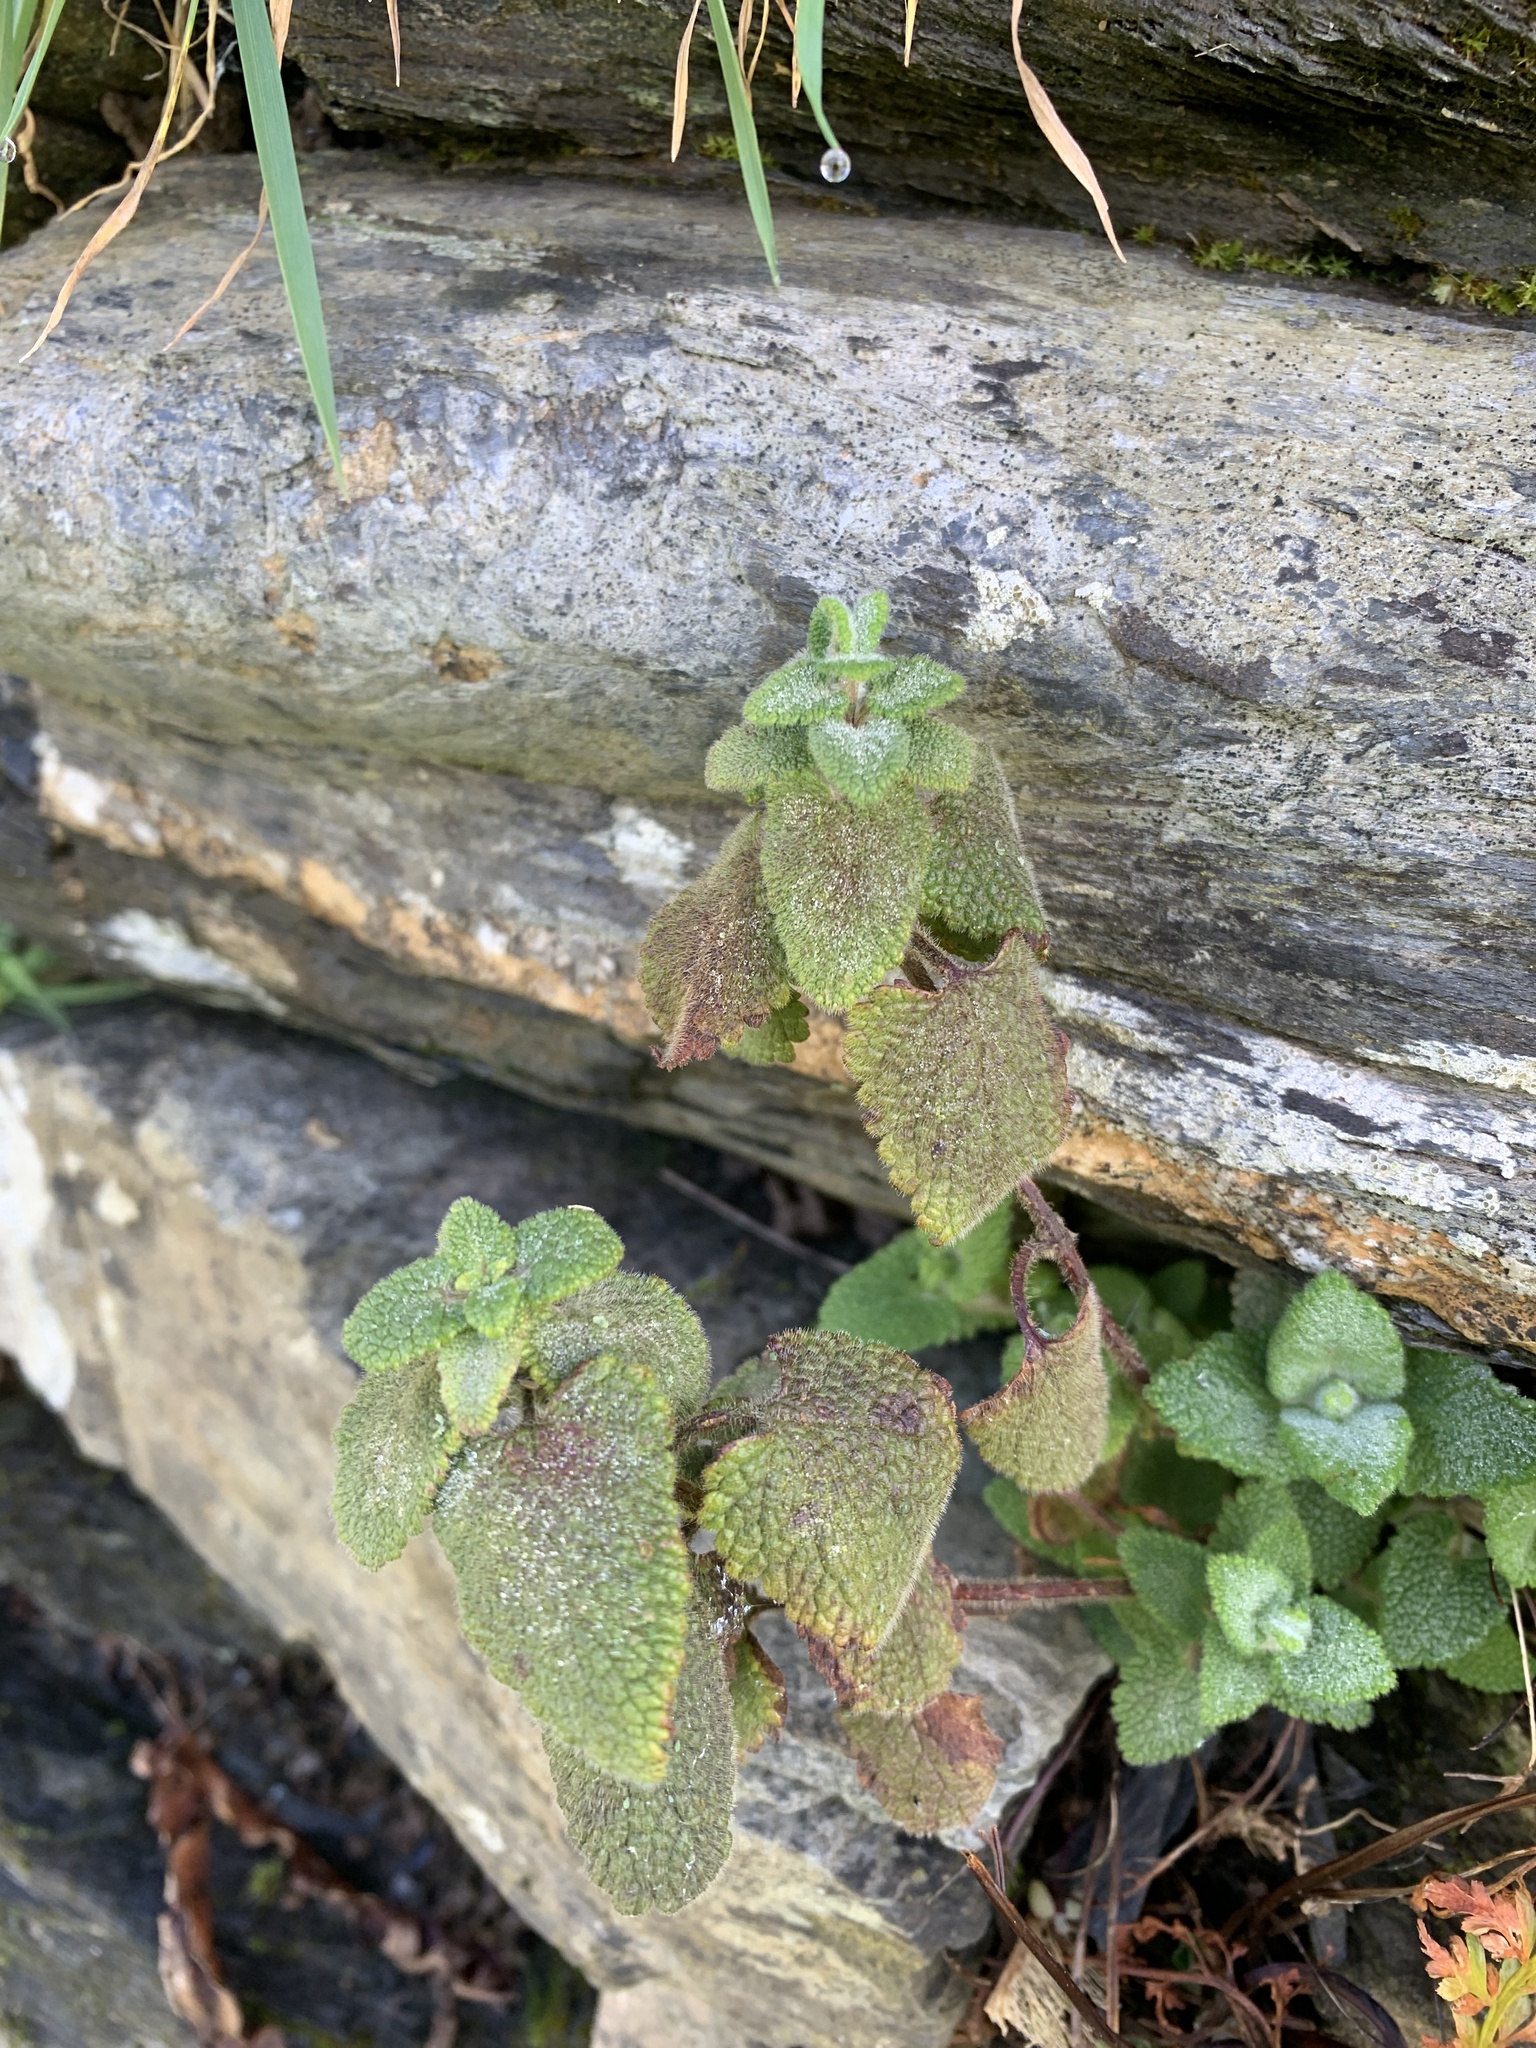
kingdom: Plantae
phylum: Tracheophyta
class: Magnoliopsida
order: Lamiales
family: Lamiaceae
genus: Teucrium
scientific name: Teucrium scorodonia
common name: Woodland germander
